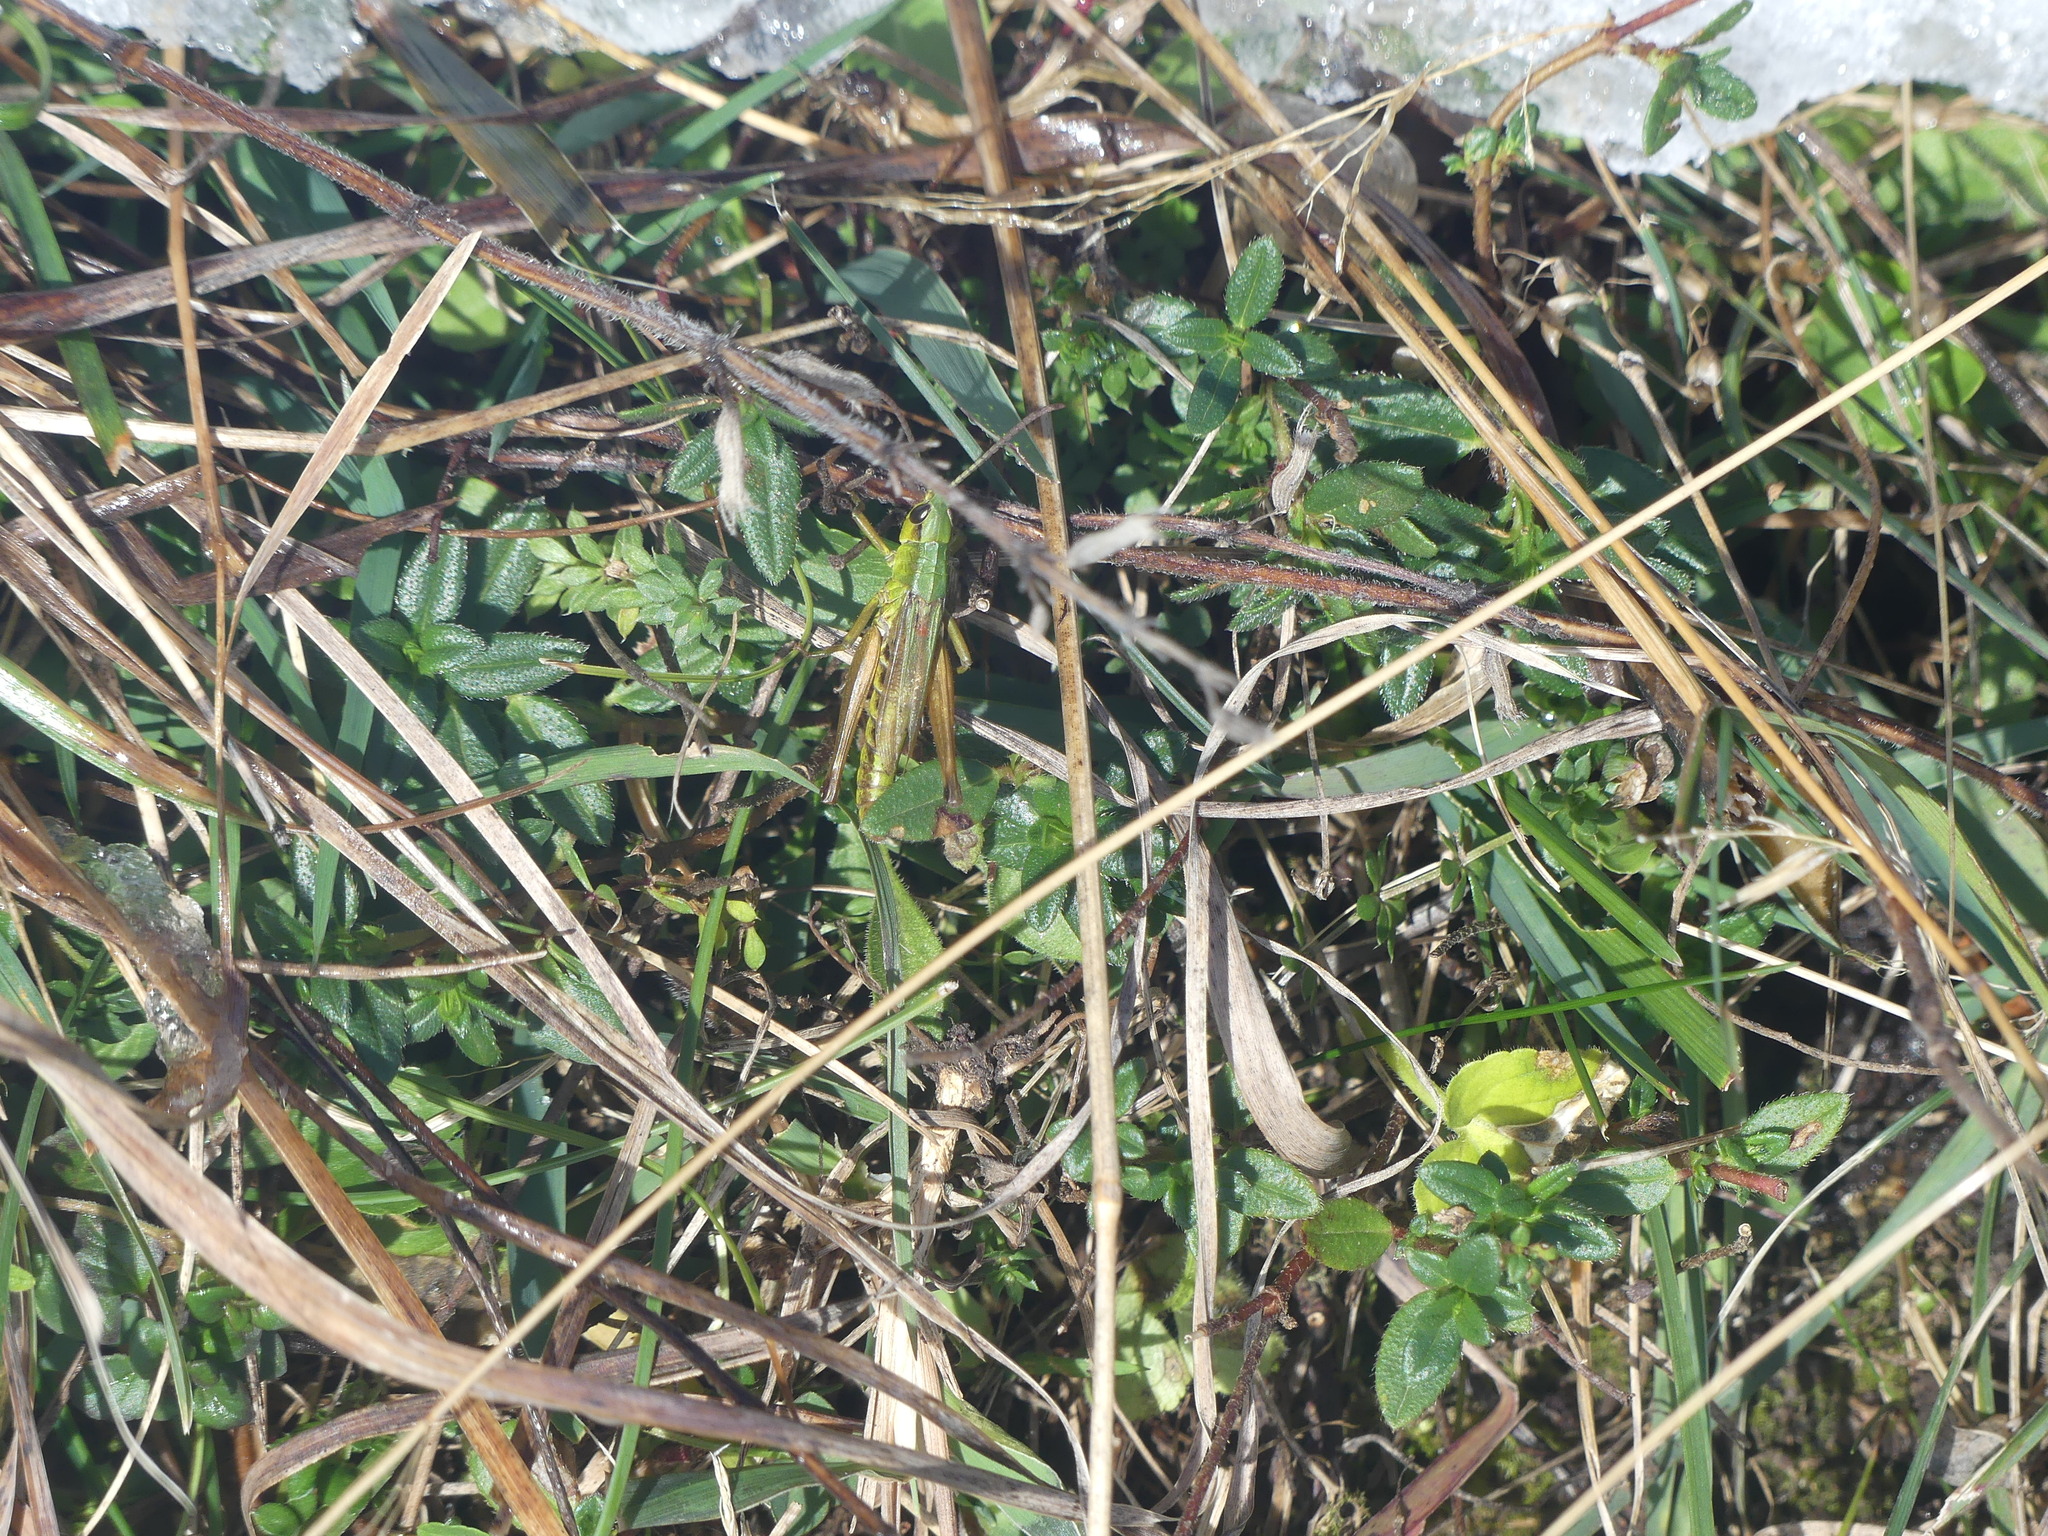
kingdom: Animalia
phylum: Arthropoda
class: Insecta
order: Orthoptera
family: Acrididae
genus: Pseudochorthippus
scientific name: Pseudochorthippus parallelus
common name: Meadow grasshopper
